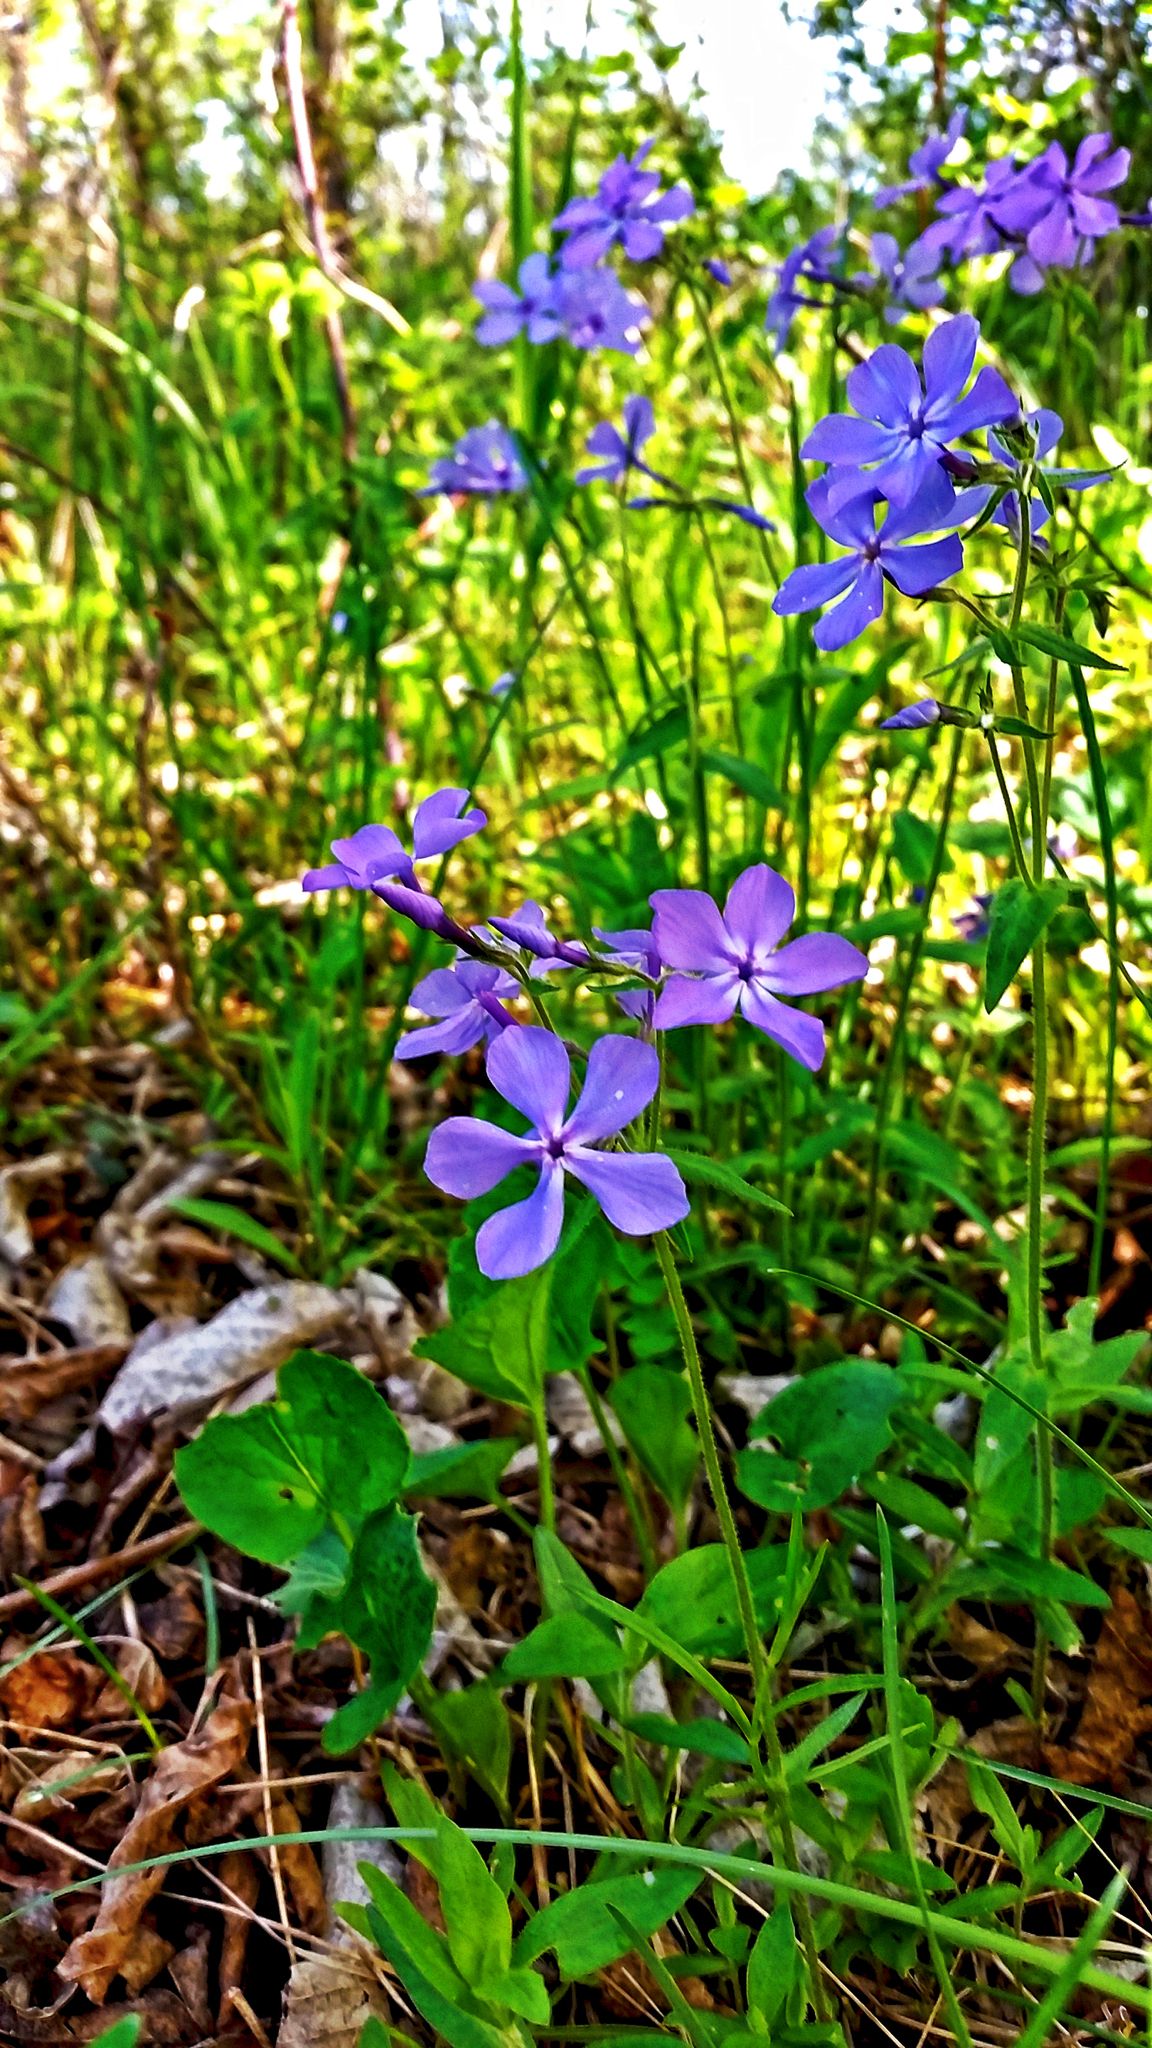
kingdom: Plantae
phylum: Tracheophyta
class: Magnoliopsida
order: Ericales
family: Polemoniaceae
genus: Phlox
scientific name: Phlox divaricata
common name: Blue phlox
